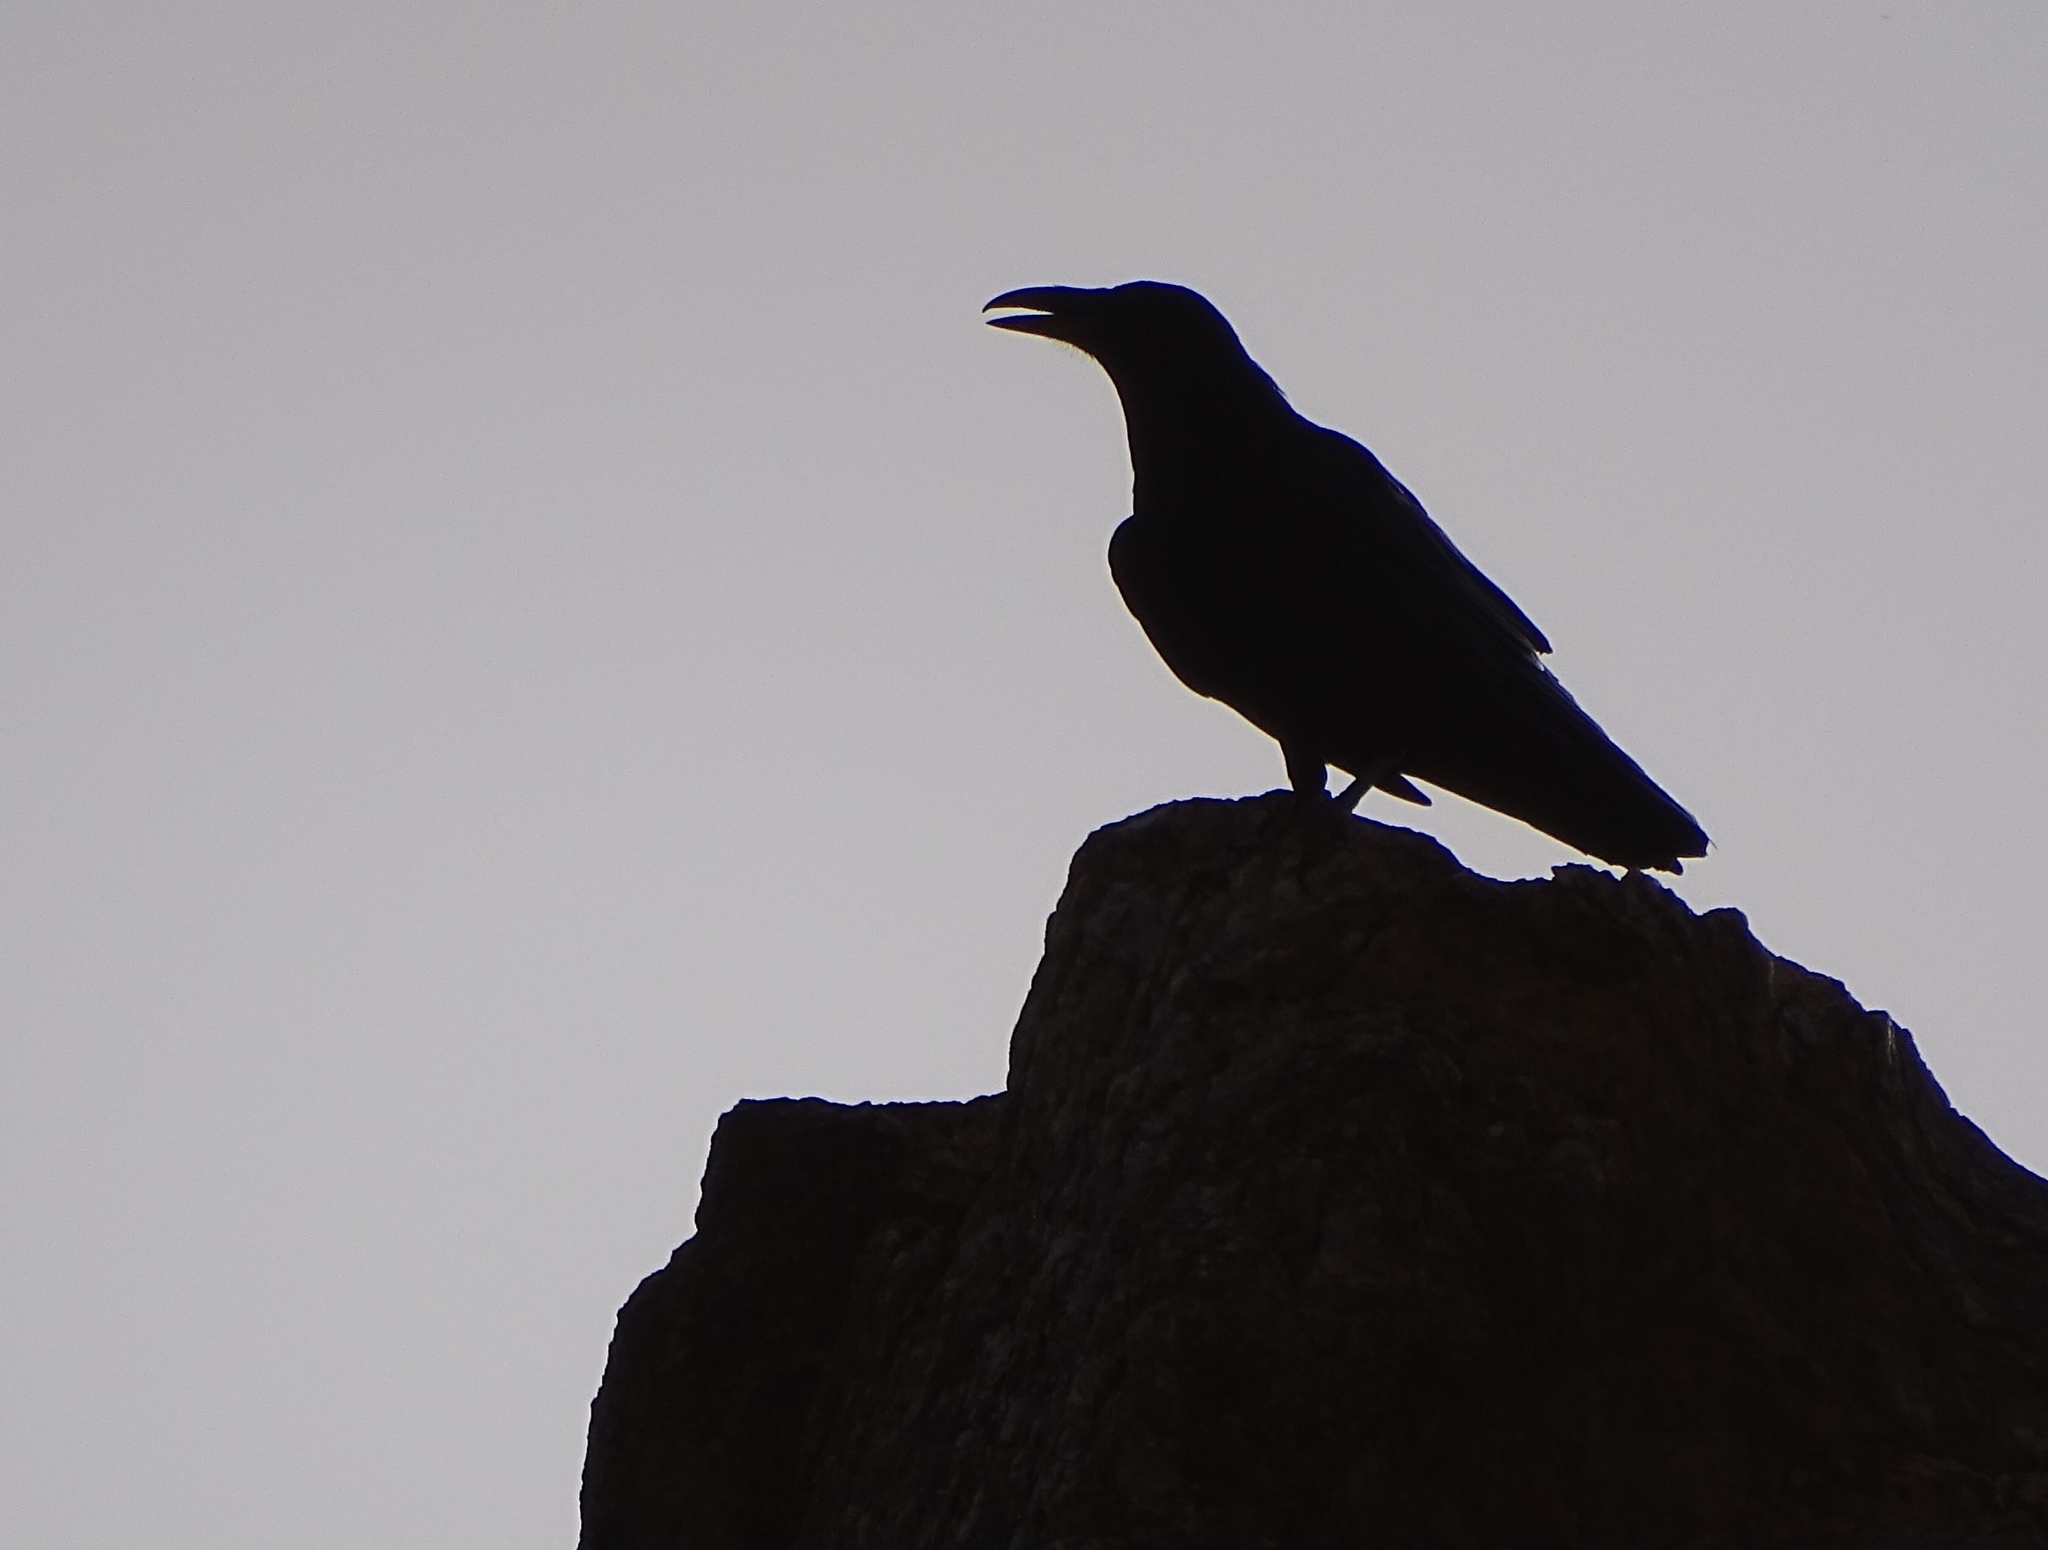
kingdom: Animalia
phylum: Chordata
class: Aves
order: Passeriformes
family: Corvidae
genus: Corvus
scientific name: Corvus corax
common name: Common raven
